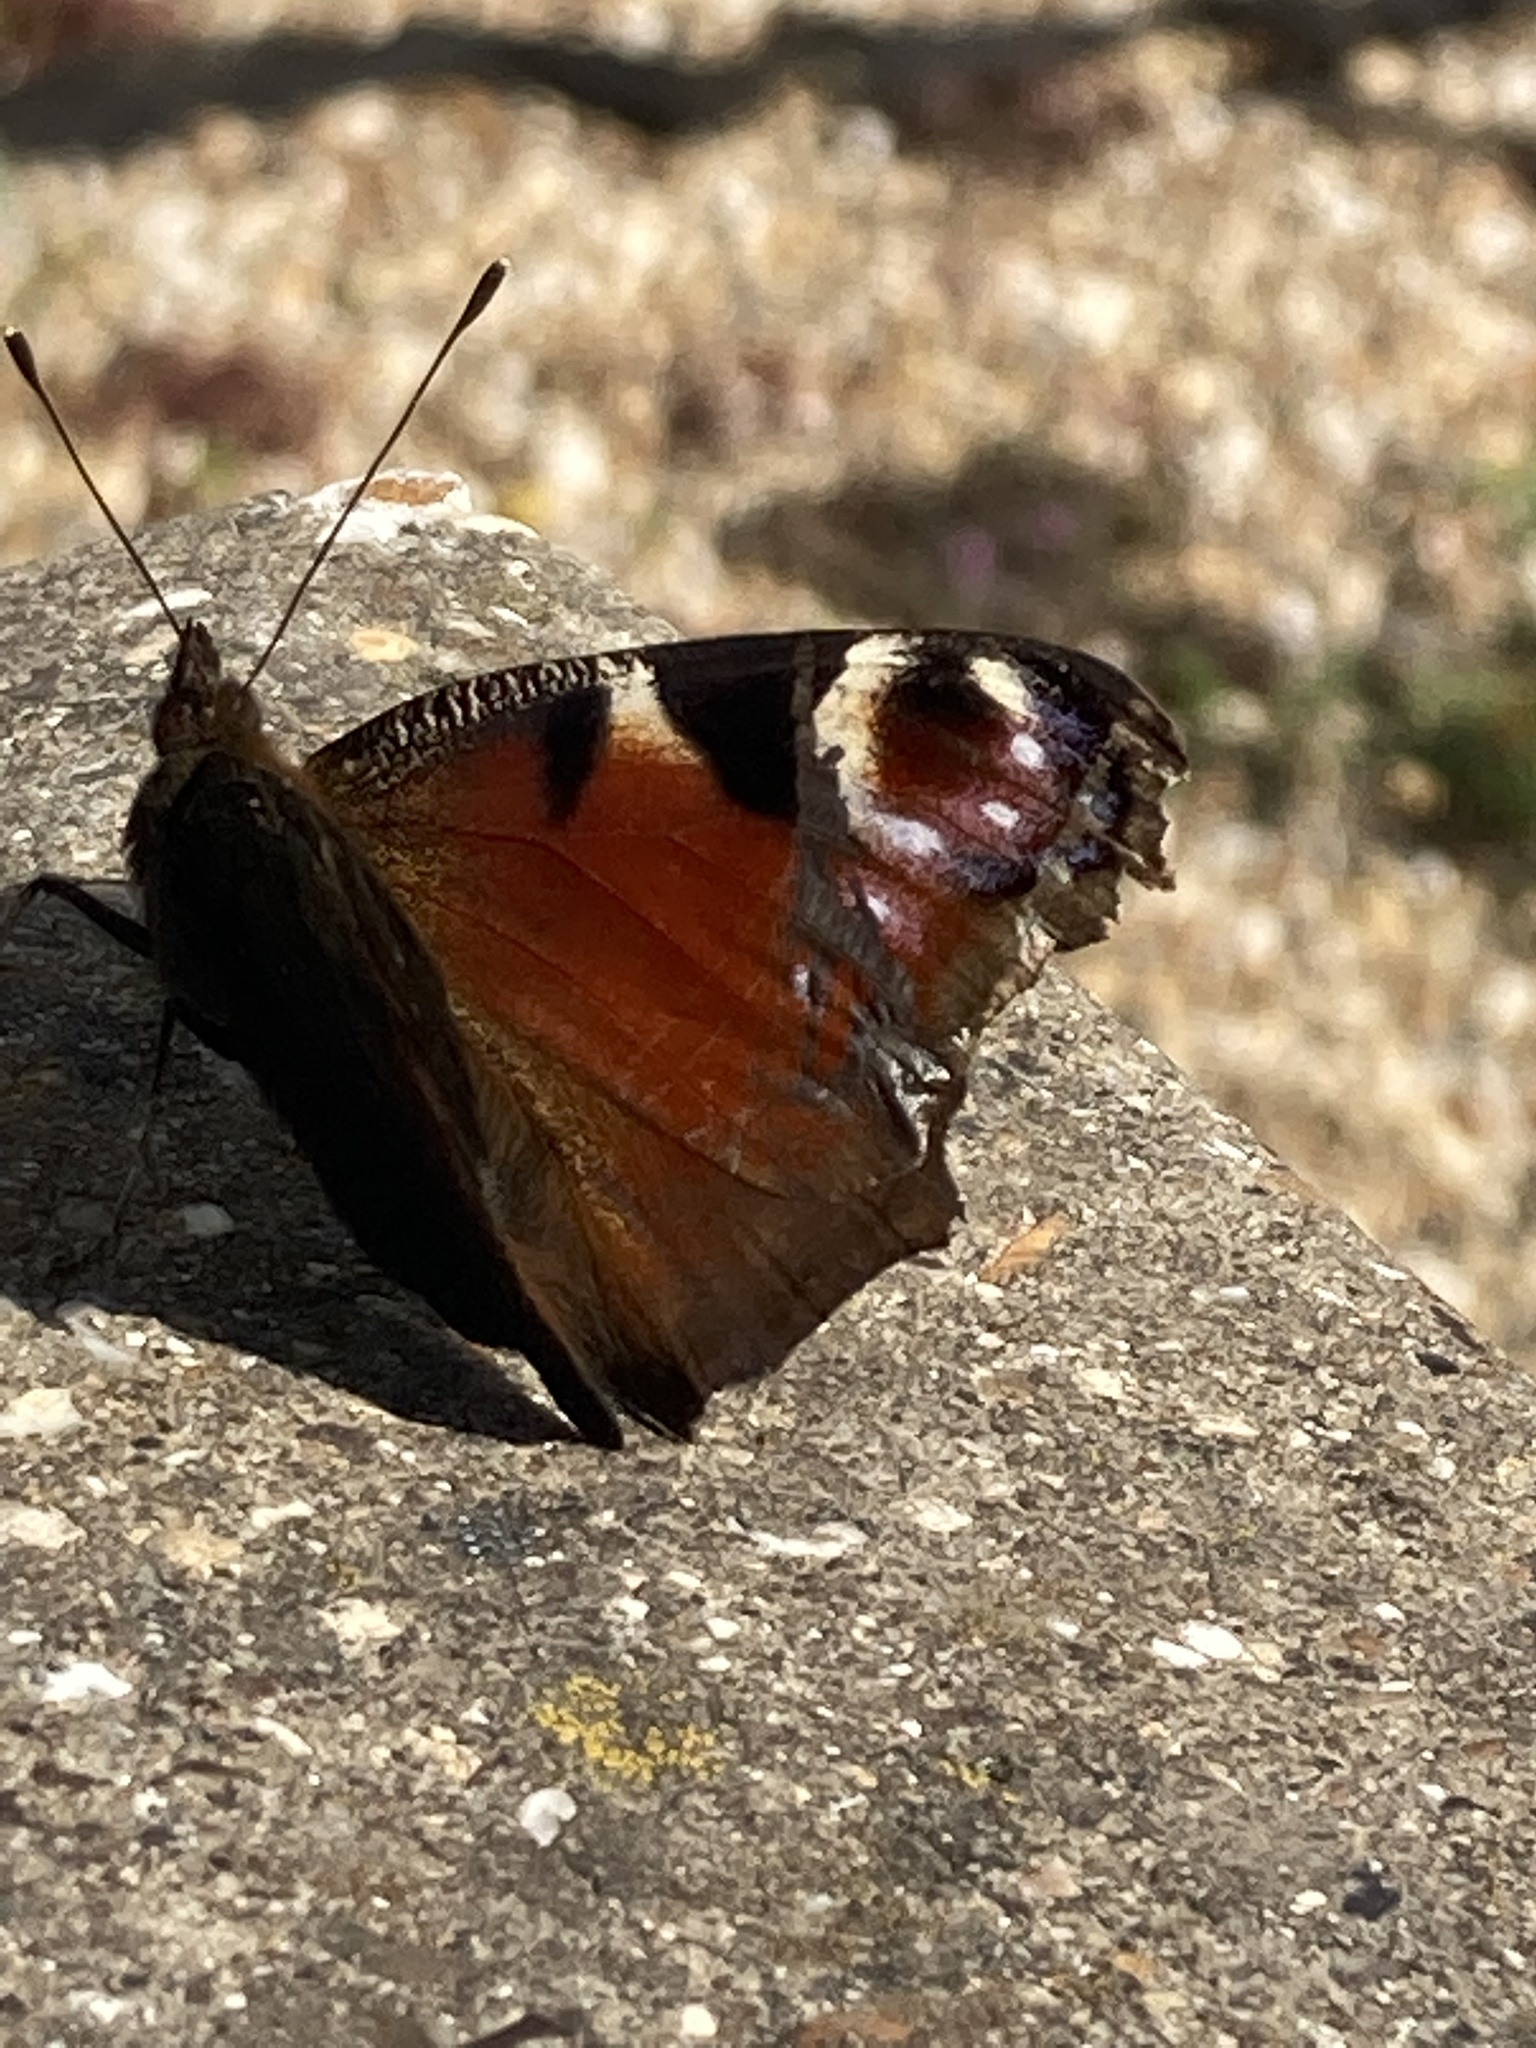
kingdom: Animalia
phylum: Arthropoda
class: Insecta
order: Lepidoptera
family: Nymphalidae
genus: Aglais
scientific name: Aglais io
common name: Peacock
